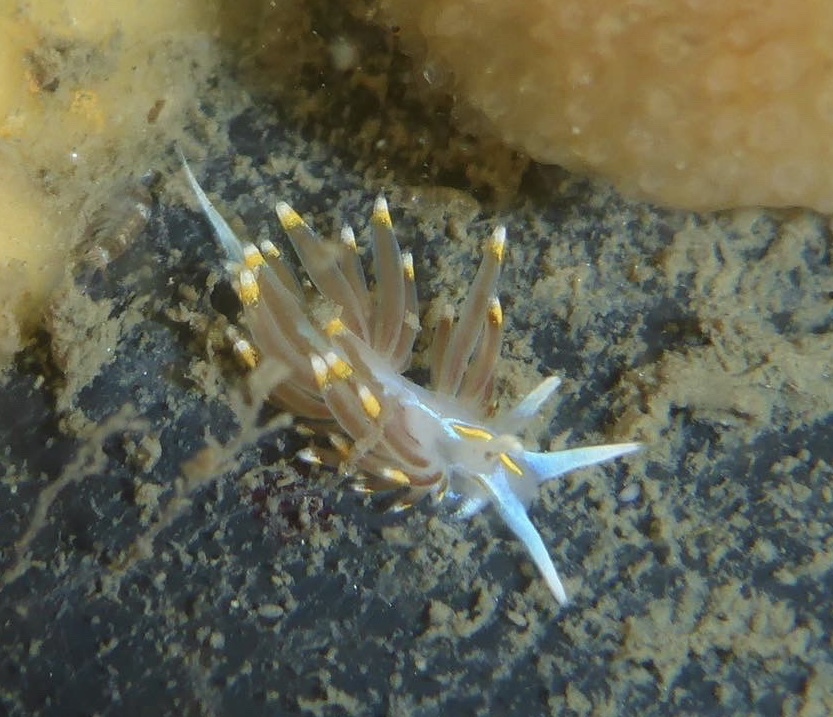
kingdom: Animalia
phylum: Mollusca
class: Gastropoda
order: Nudibranchia
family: Myrrhinidae
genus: Hermissenda
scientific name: Hermissenda opalescens
